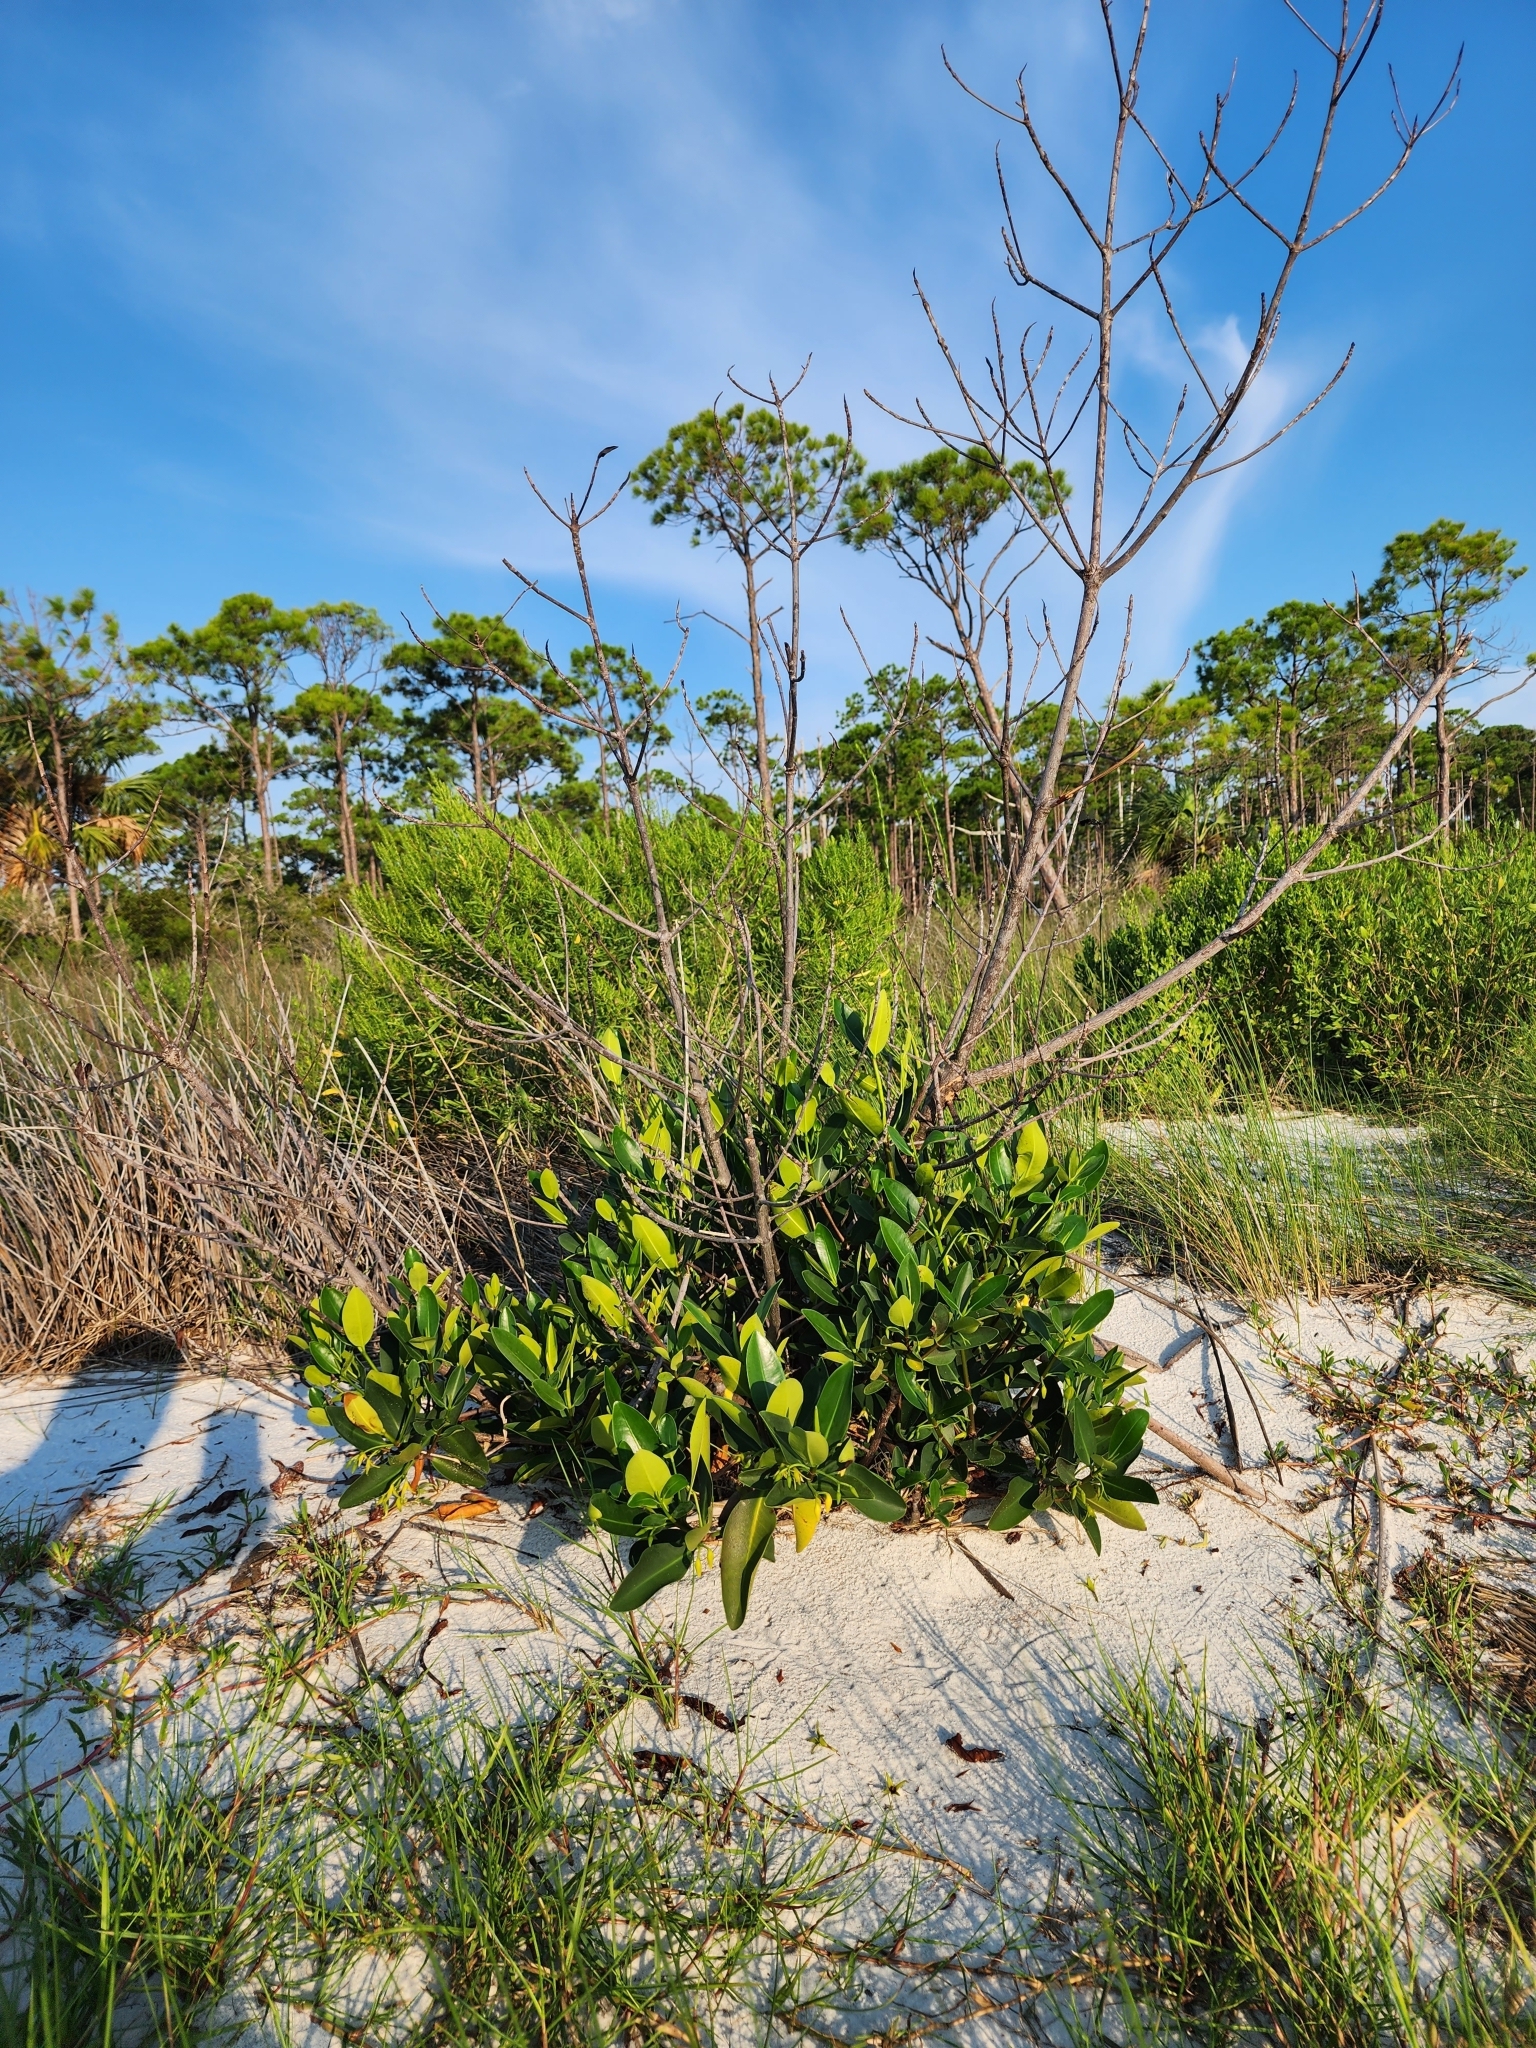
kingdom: Plantae
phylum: Tracheophyta
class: Magnoliopsida
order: Malpighiales
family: Rhizophoraceae
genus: Rhizophora
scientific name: Rhizophora mangle
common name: Red mangrove
